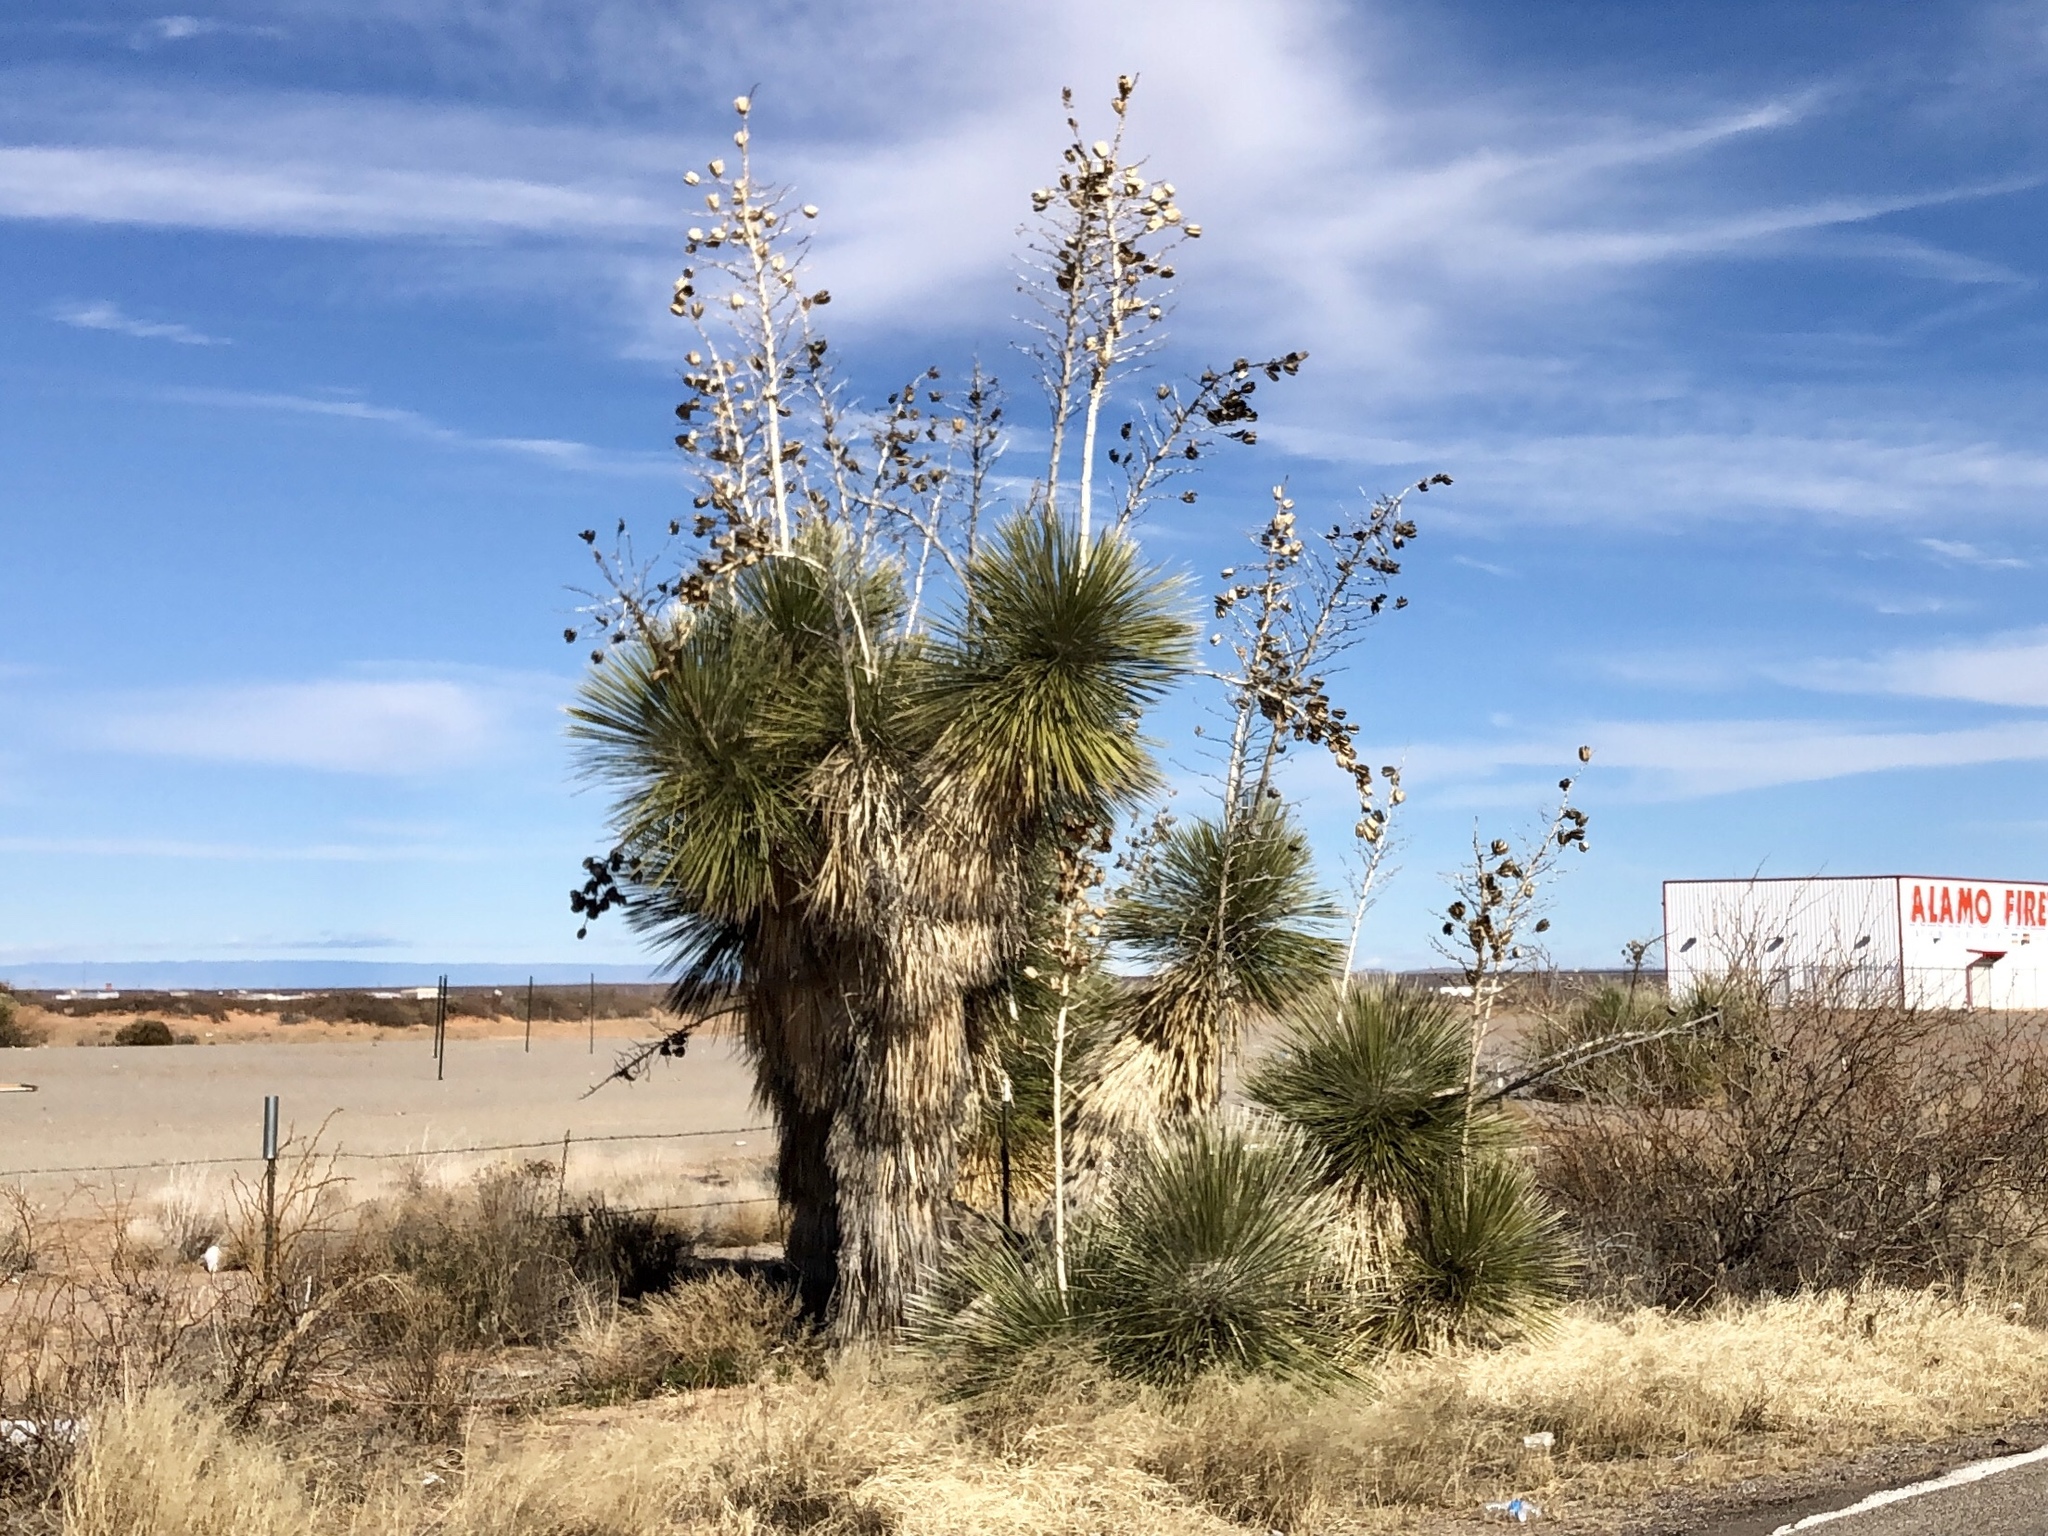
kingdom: Plantae
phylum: Tracheophyta
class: Liliopsida
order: Asparagales
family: Asparagaceae
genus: Yucca
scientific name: Yucca elata
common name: Palmella
